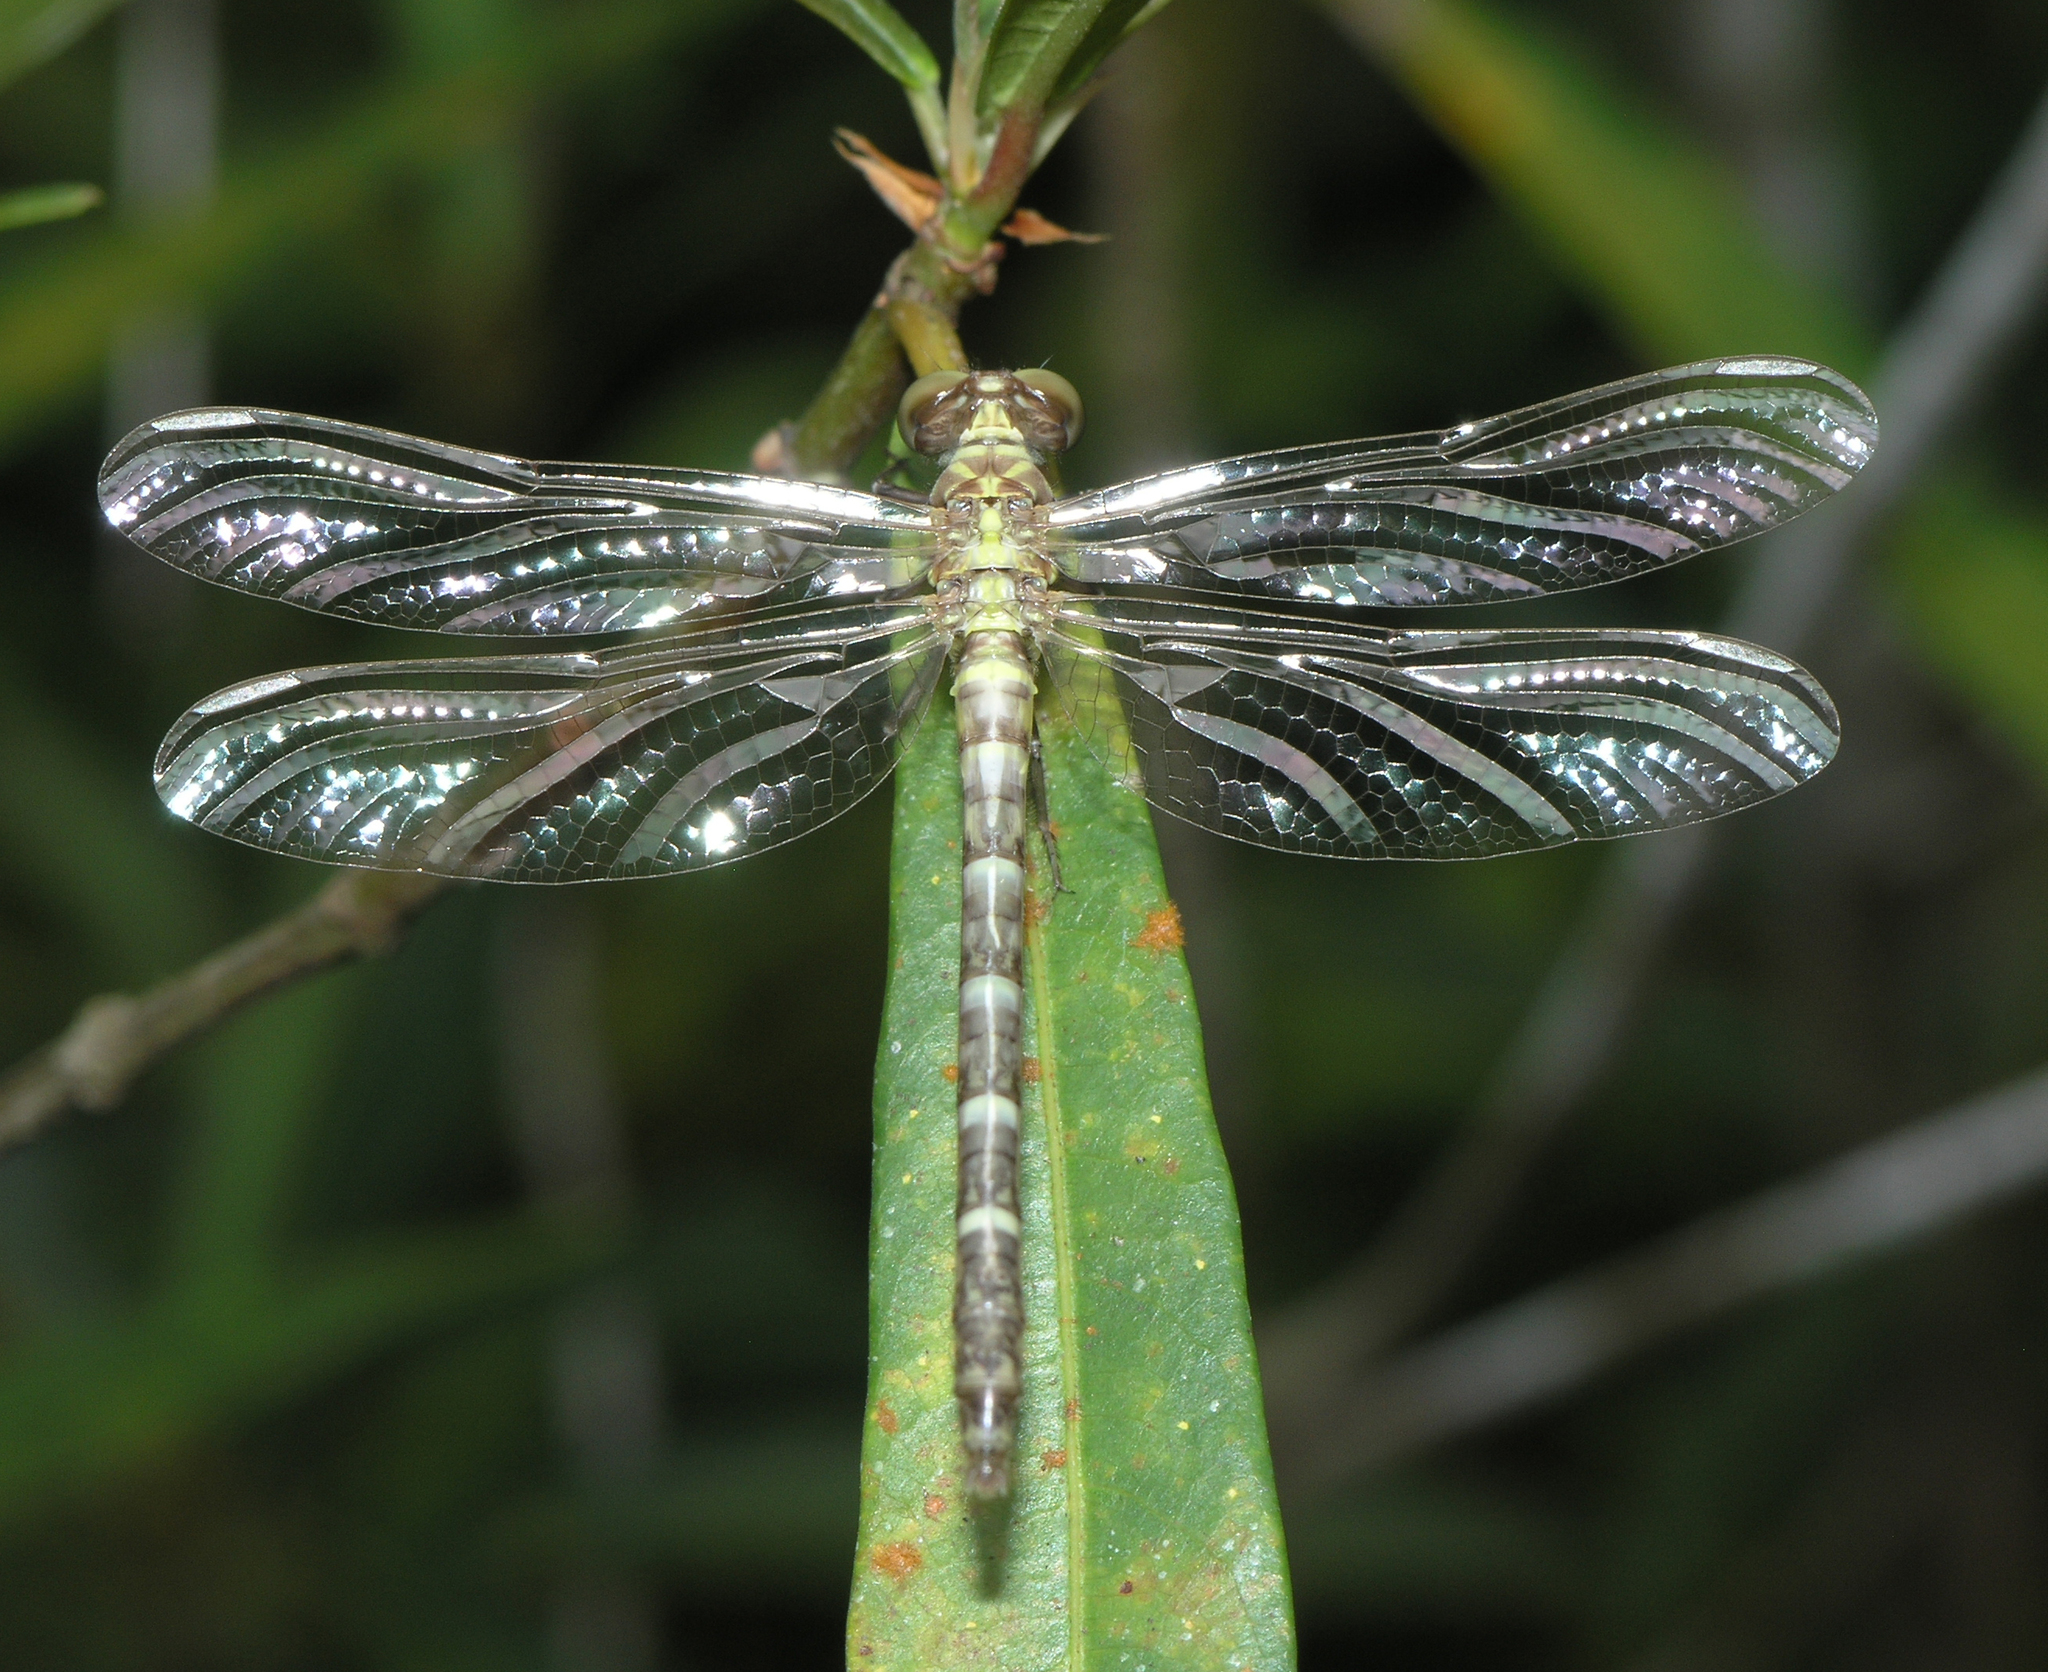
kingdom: Animalia
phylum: Arthropoda
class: Insecta
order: Odonata
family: Gomphidae
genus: Euthygomphus
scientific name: Euthygomphus yunnanensis
